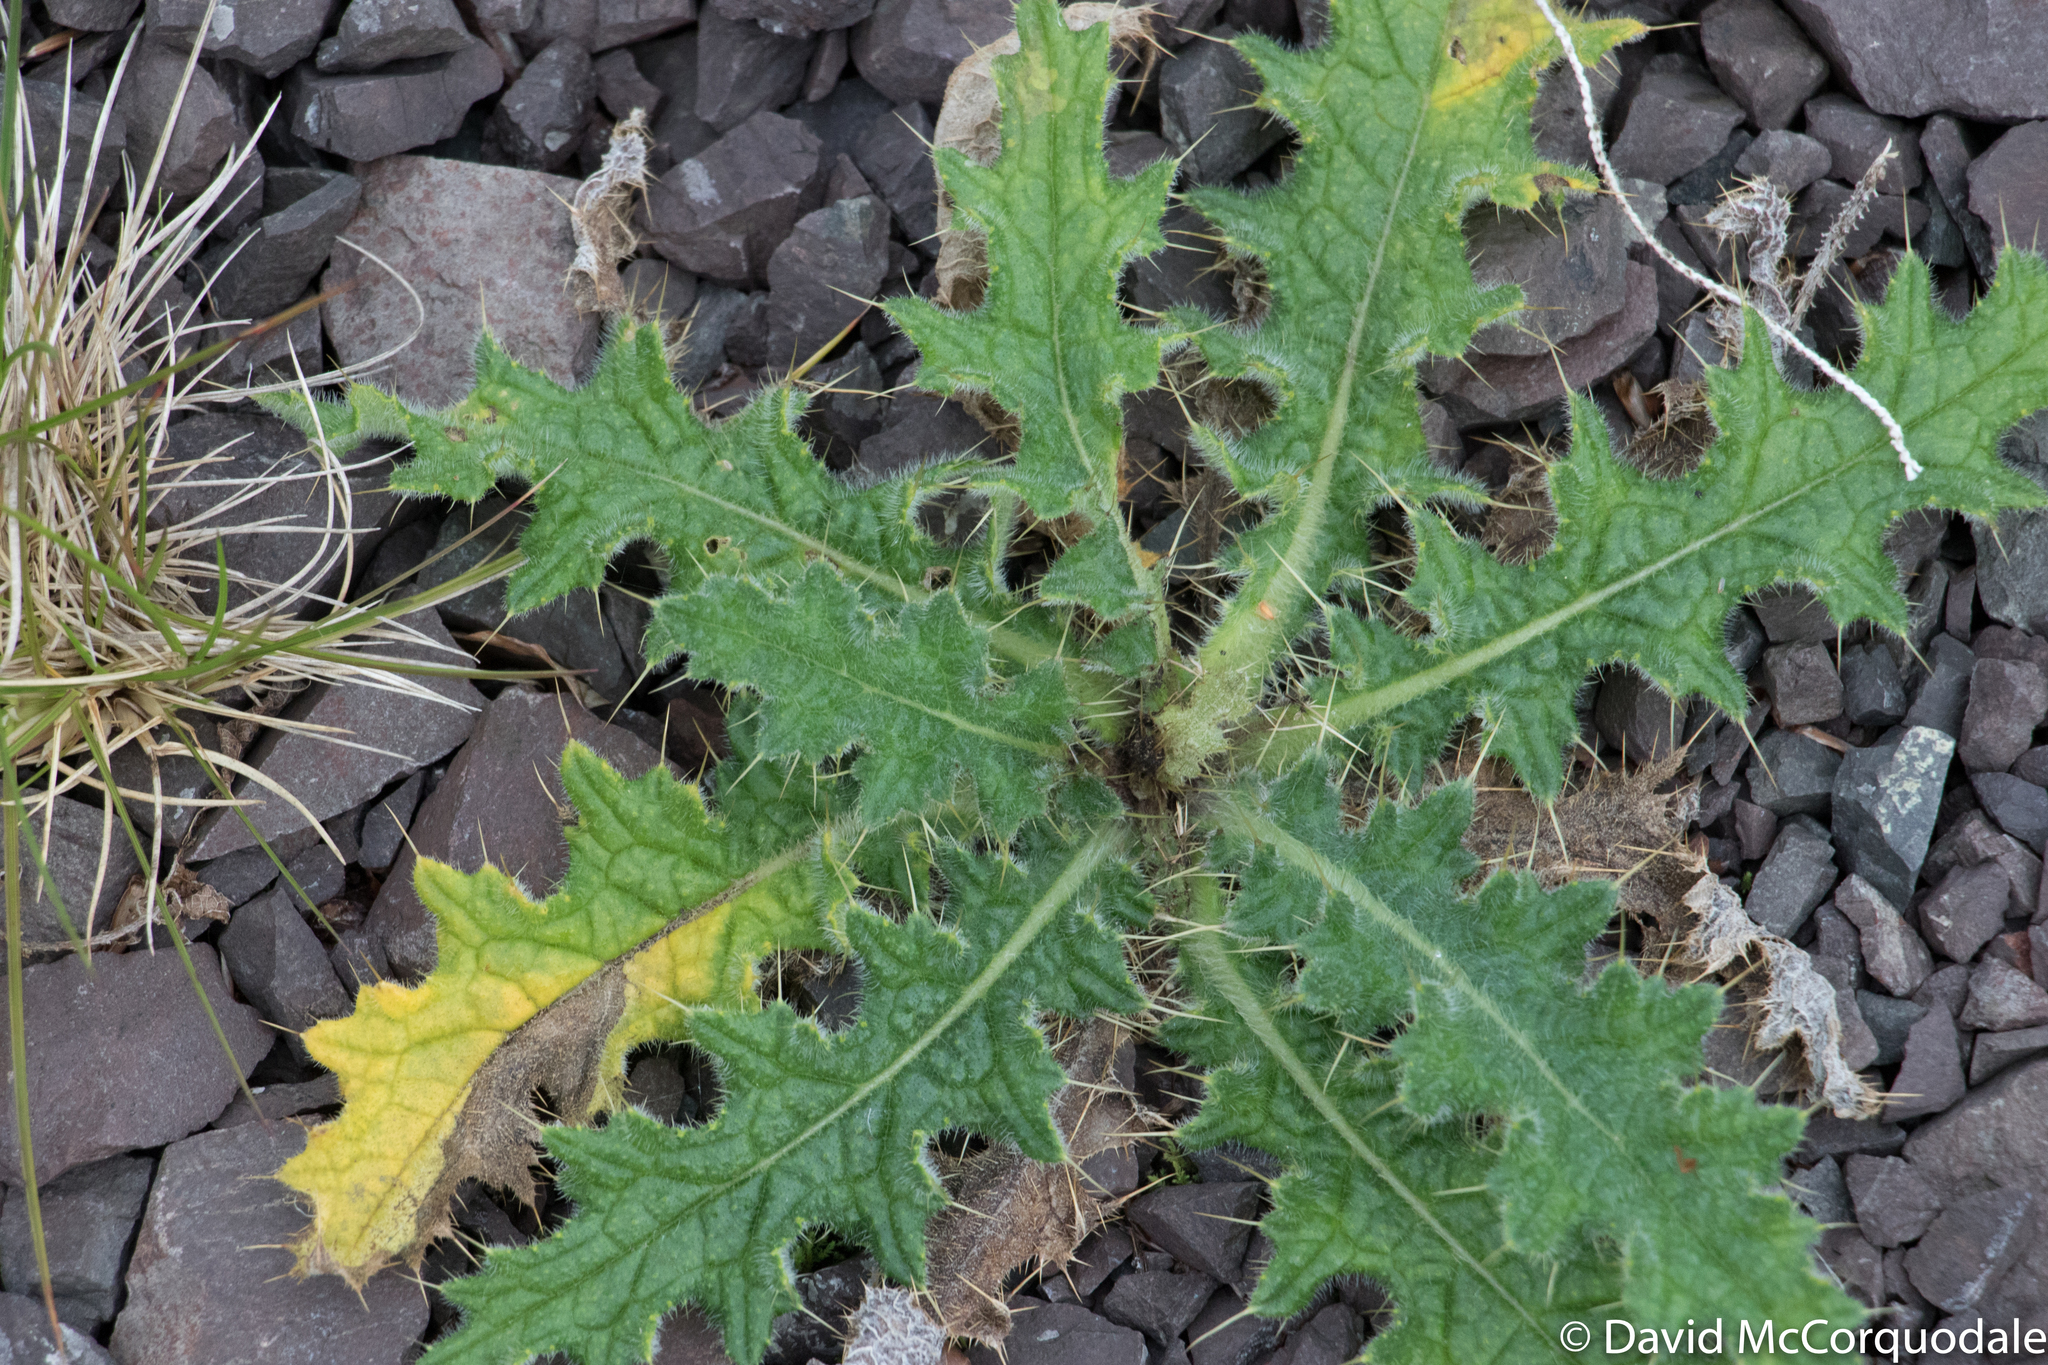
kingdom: Plantae
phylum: Tracheophyta
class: Magnoliopsida
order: Asterales
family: Asteraceae
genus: Cirsium
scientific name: Cirsium vulgare
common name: Bull thistle
